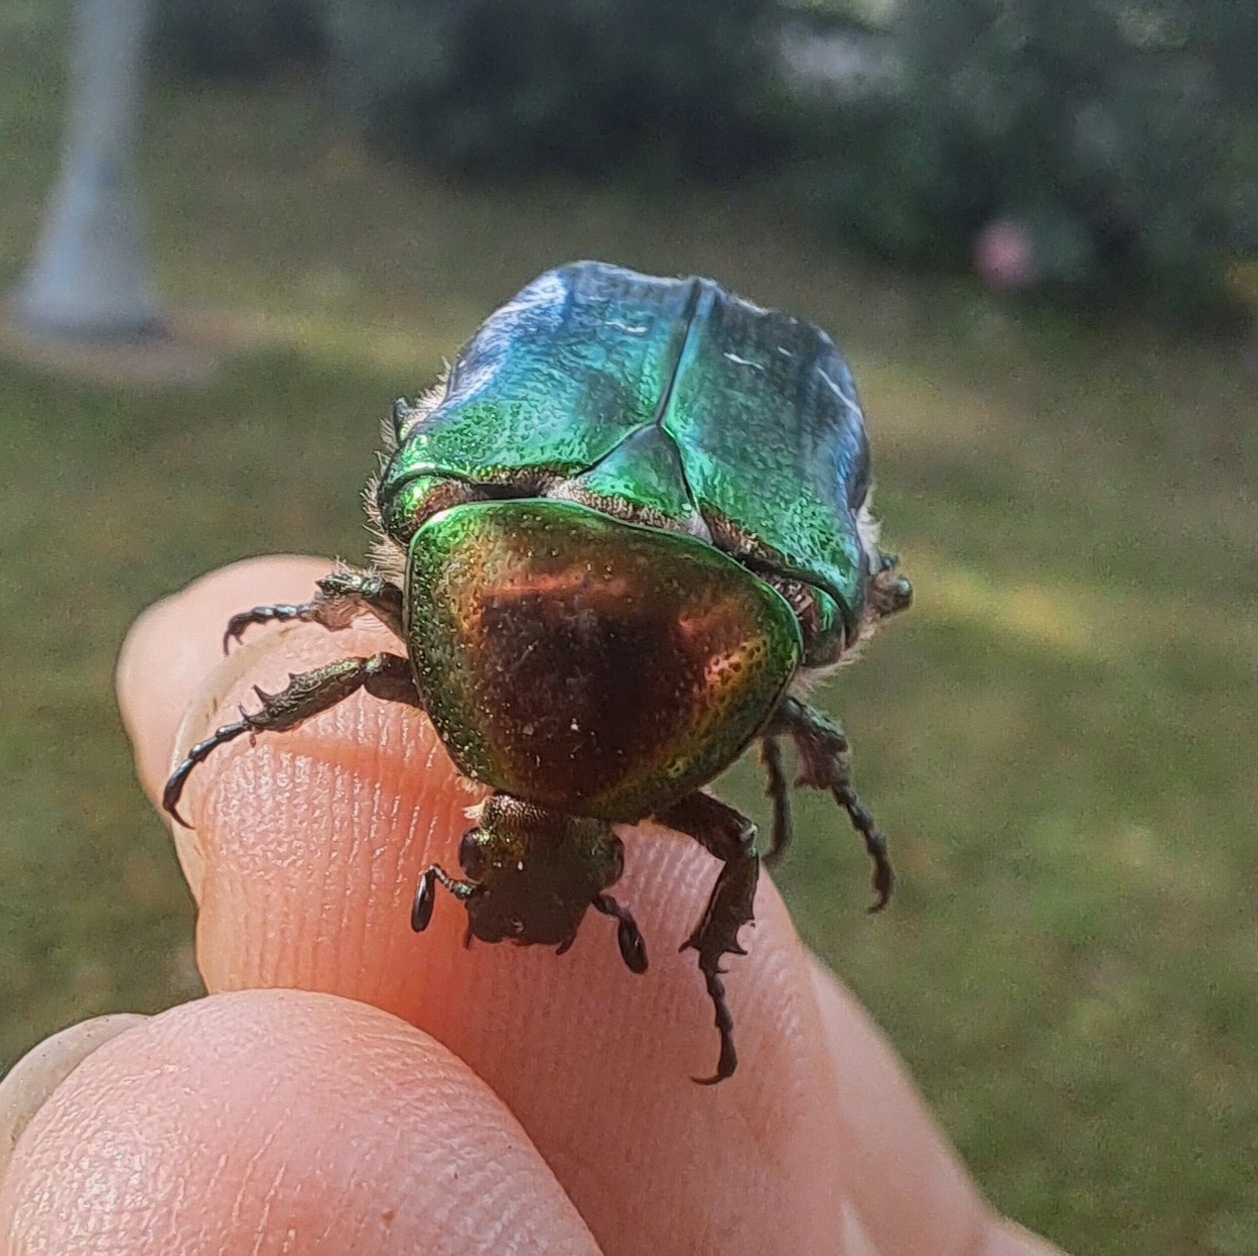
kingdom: Animalia
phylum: Arthropoda
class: Insecta
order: Coleoptera
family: Scarabaeidae
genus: Cetonia
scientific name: Cetonia aurata
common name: Rose chafer
